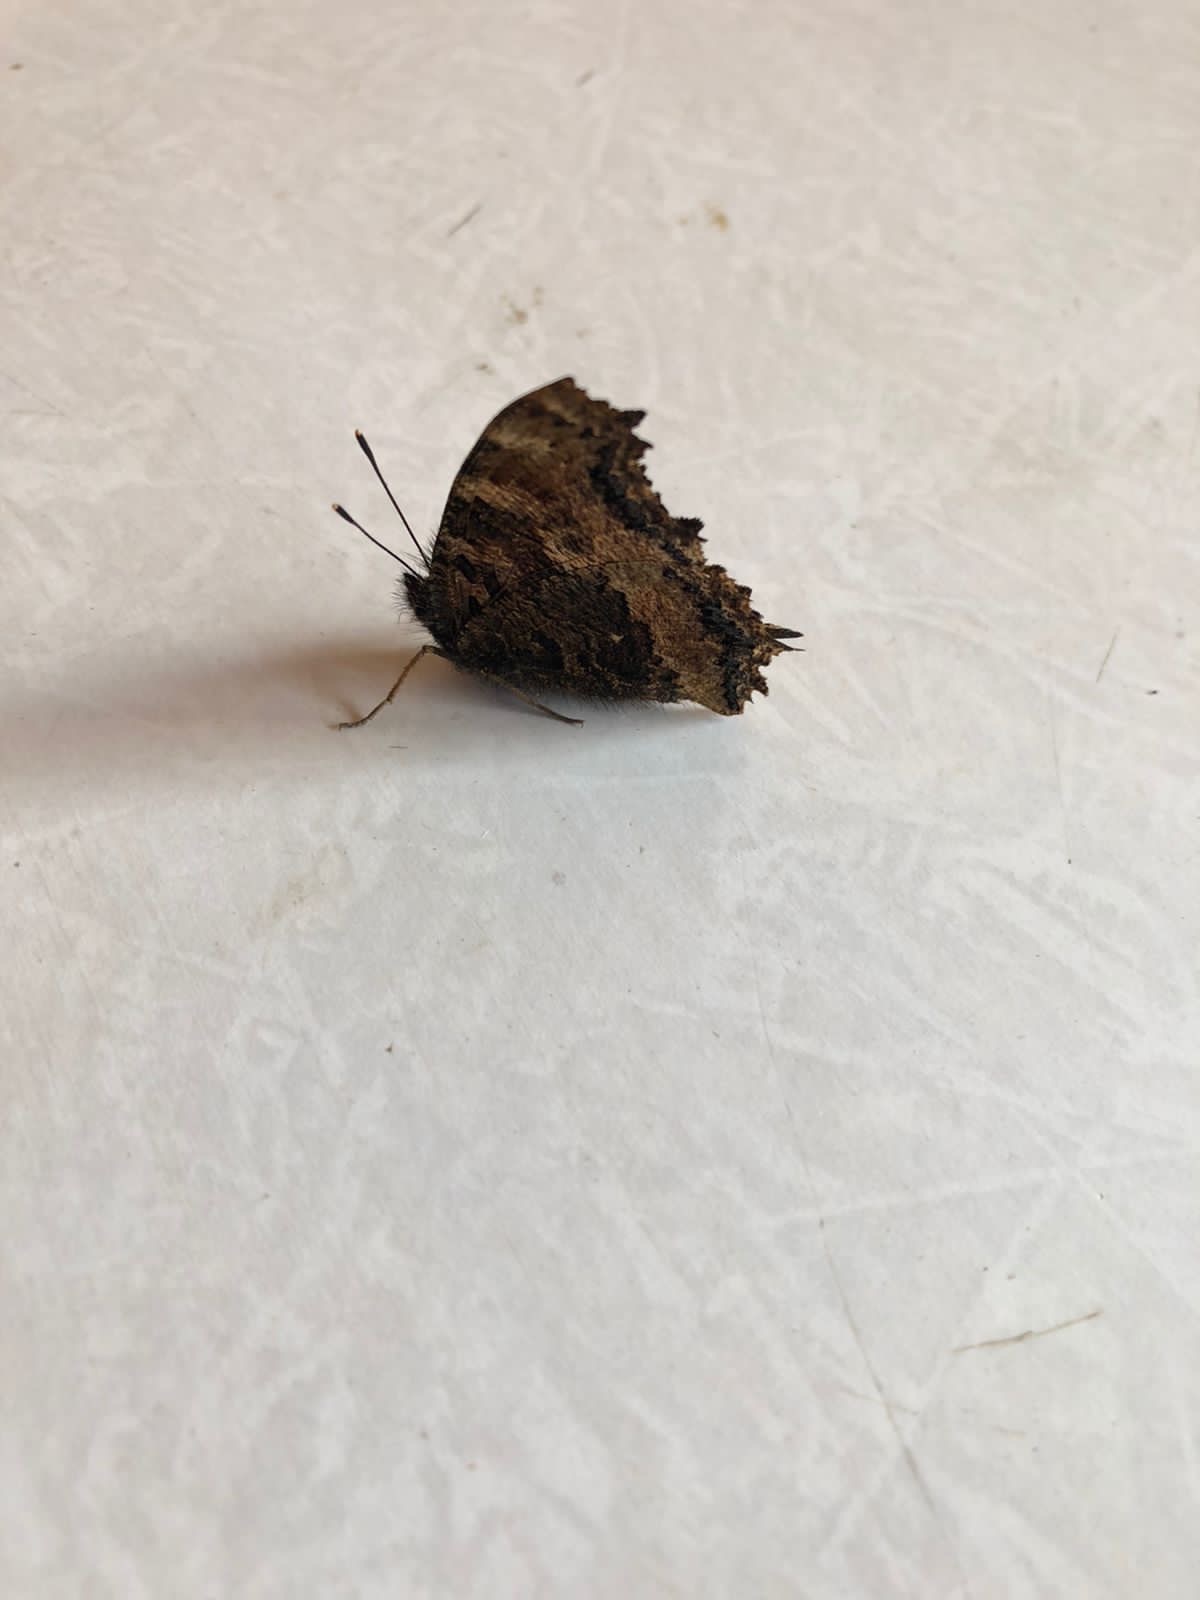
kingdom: Animalia
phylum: Arthropoda
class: Insecta
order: Lepidoptera
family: Nymphalidae
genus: Nymphalis
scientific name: Nymphalis xanthomelas
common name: Scarce tortoiseshell
